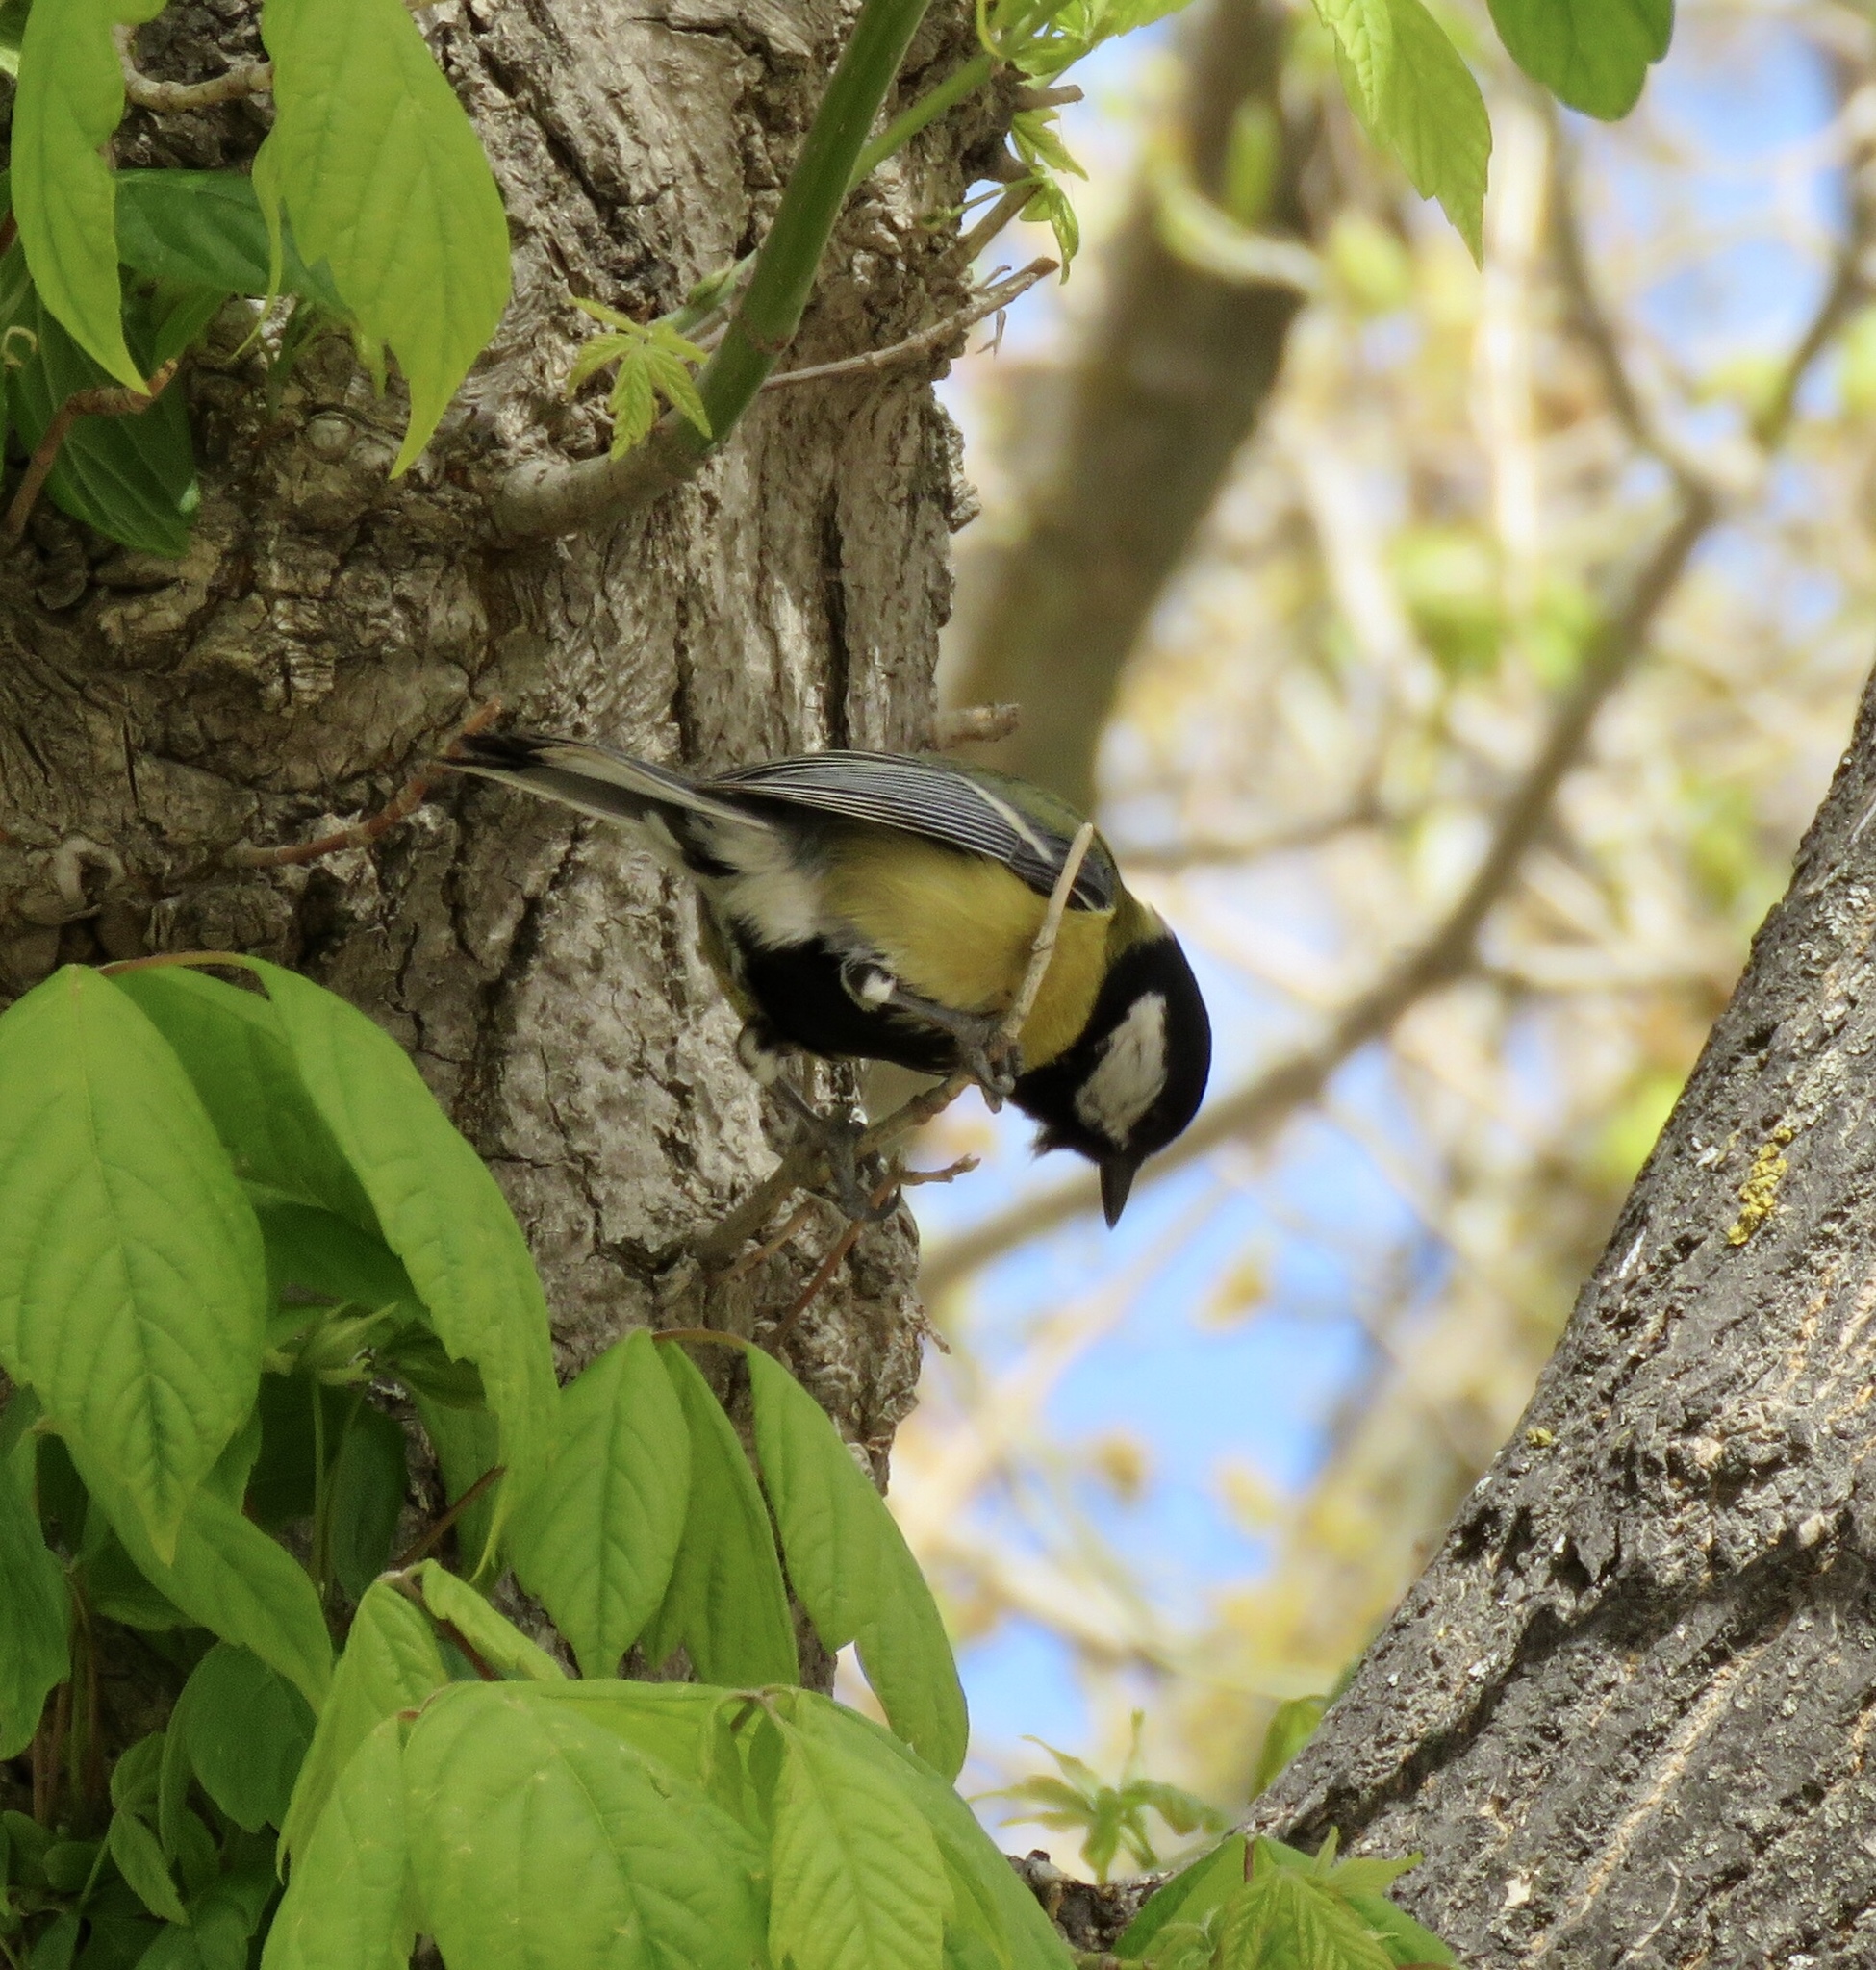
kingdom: Animalia
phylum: Chordata
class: Aves
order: Passeriformes
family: Paridae
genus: Parus
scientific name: Parus major
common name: Great tit
